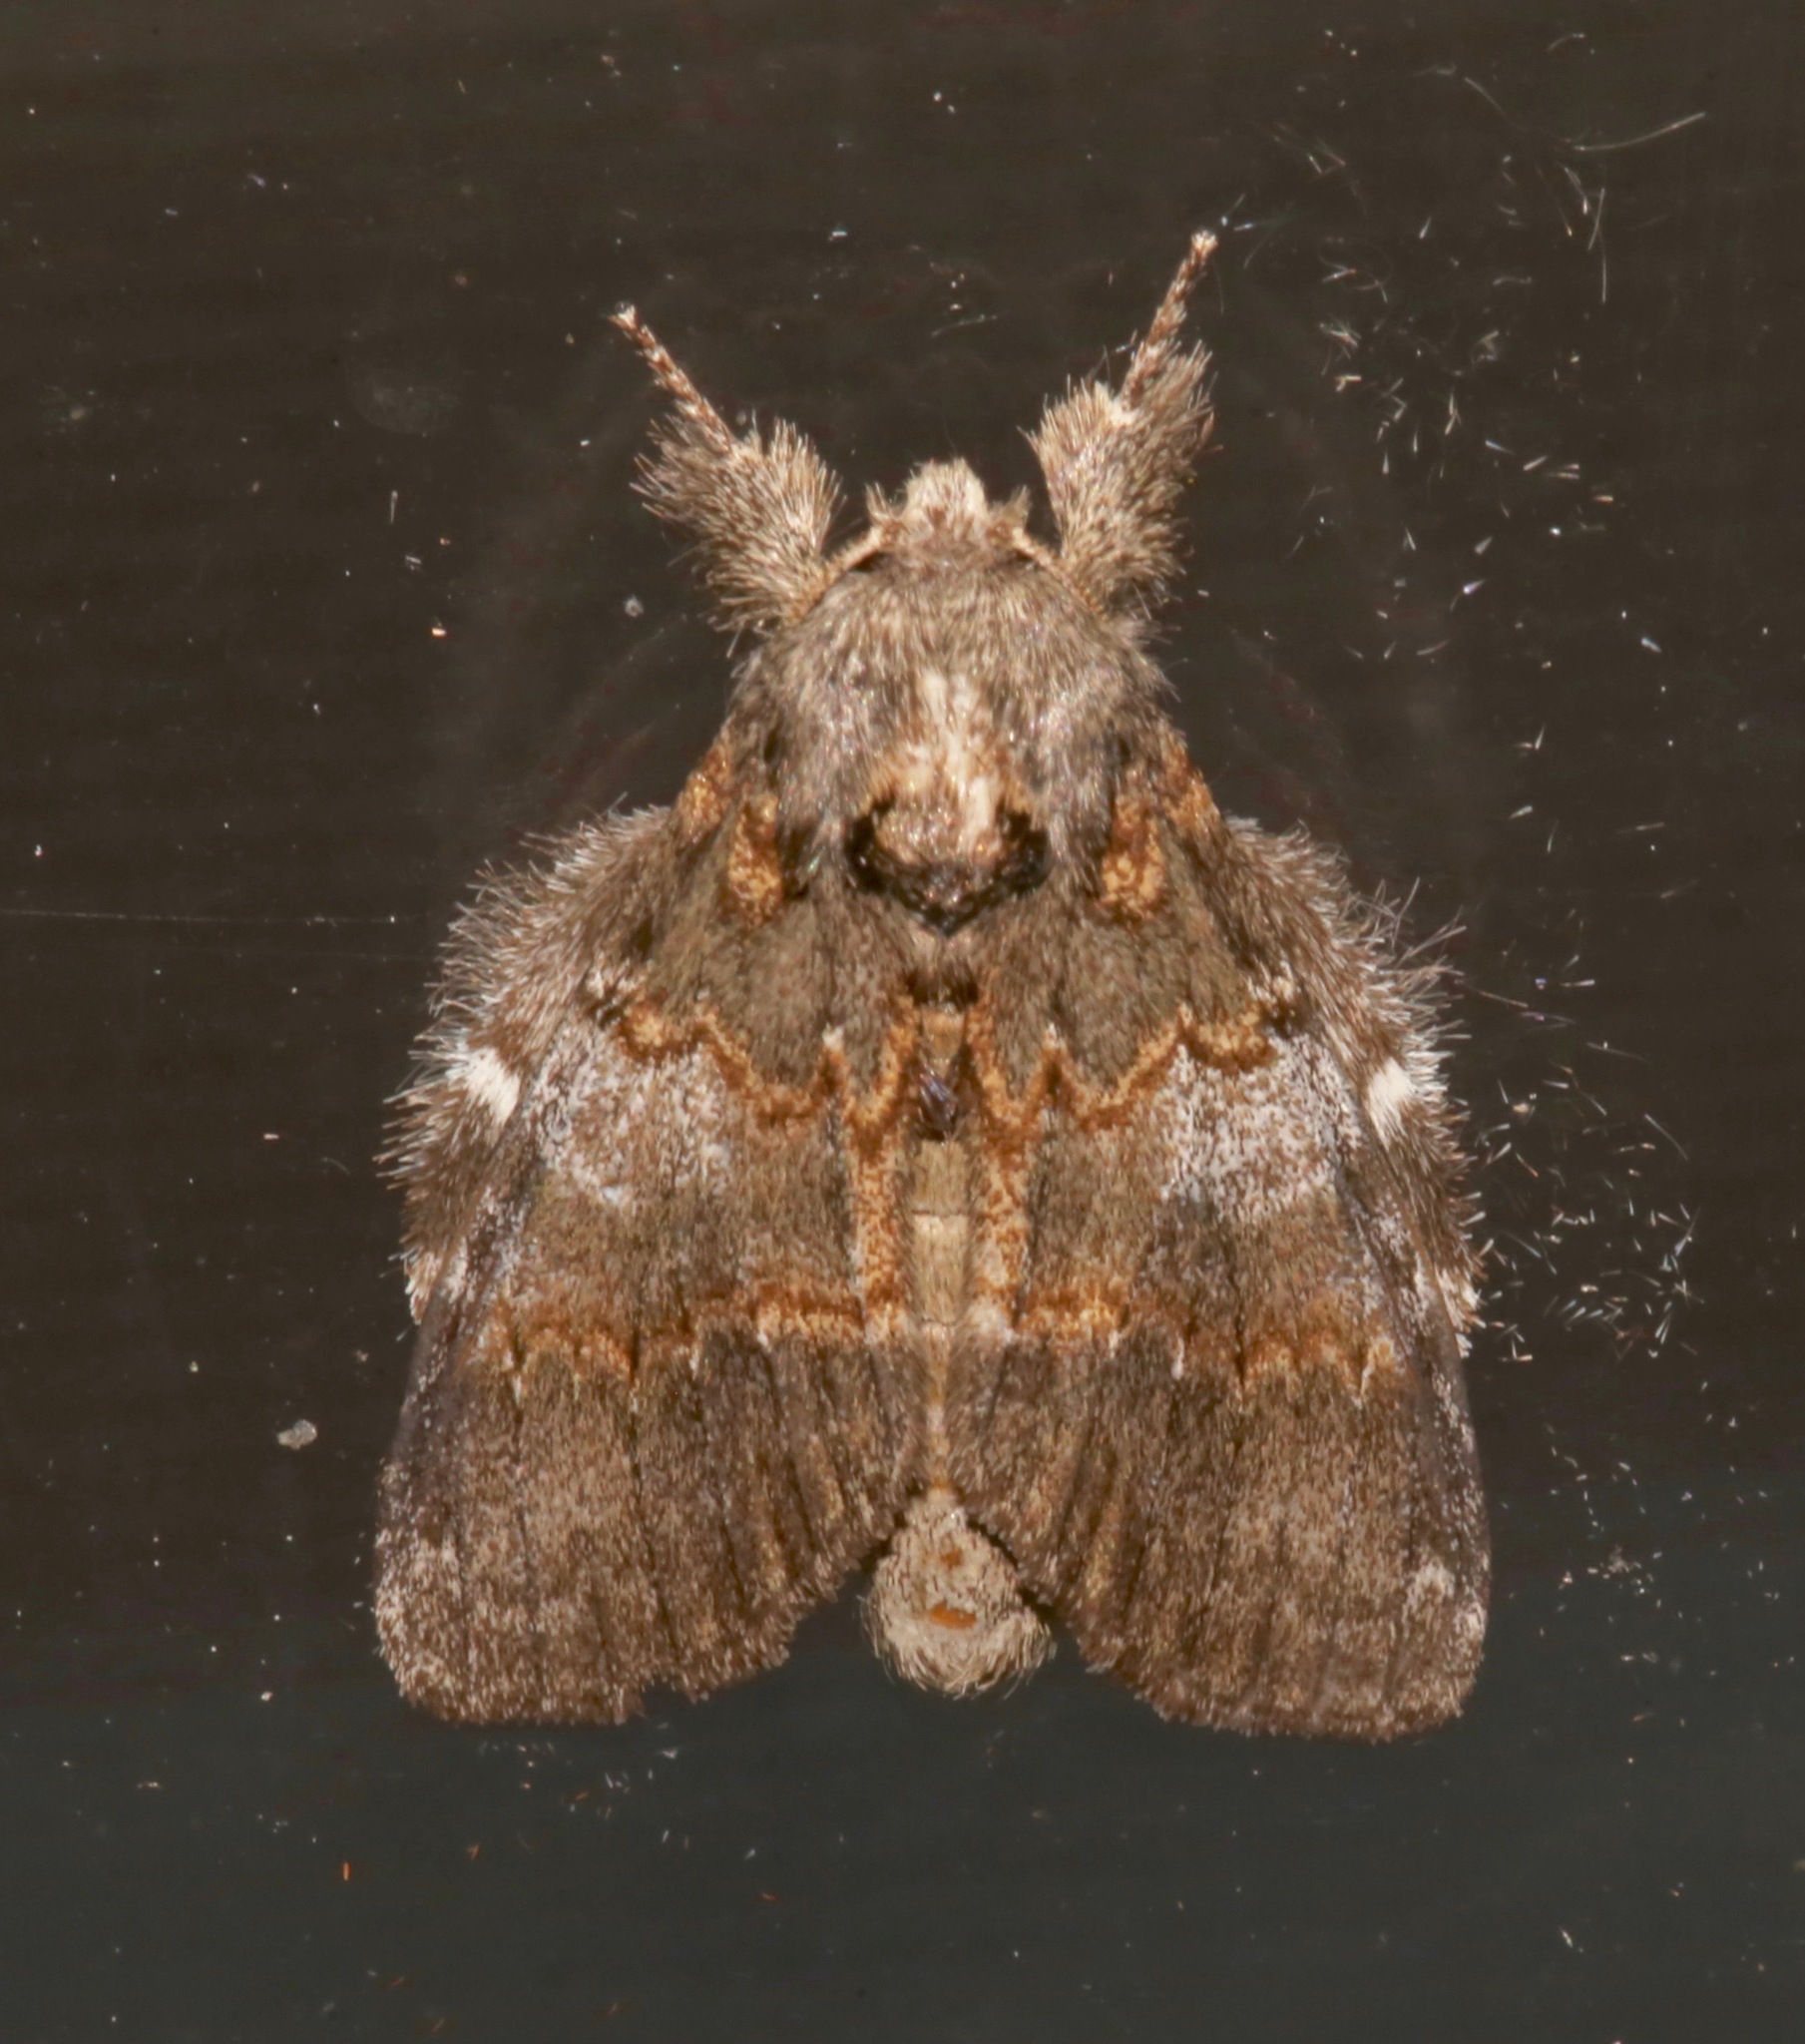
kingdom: Animalia
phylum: Arthropoda
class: Insecta
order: Lepidoptera
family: Notodontidae
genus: Peridea
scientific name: Peridea angulosa
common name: Angulose prominent
